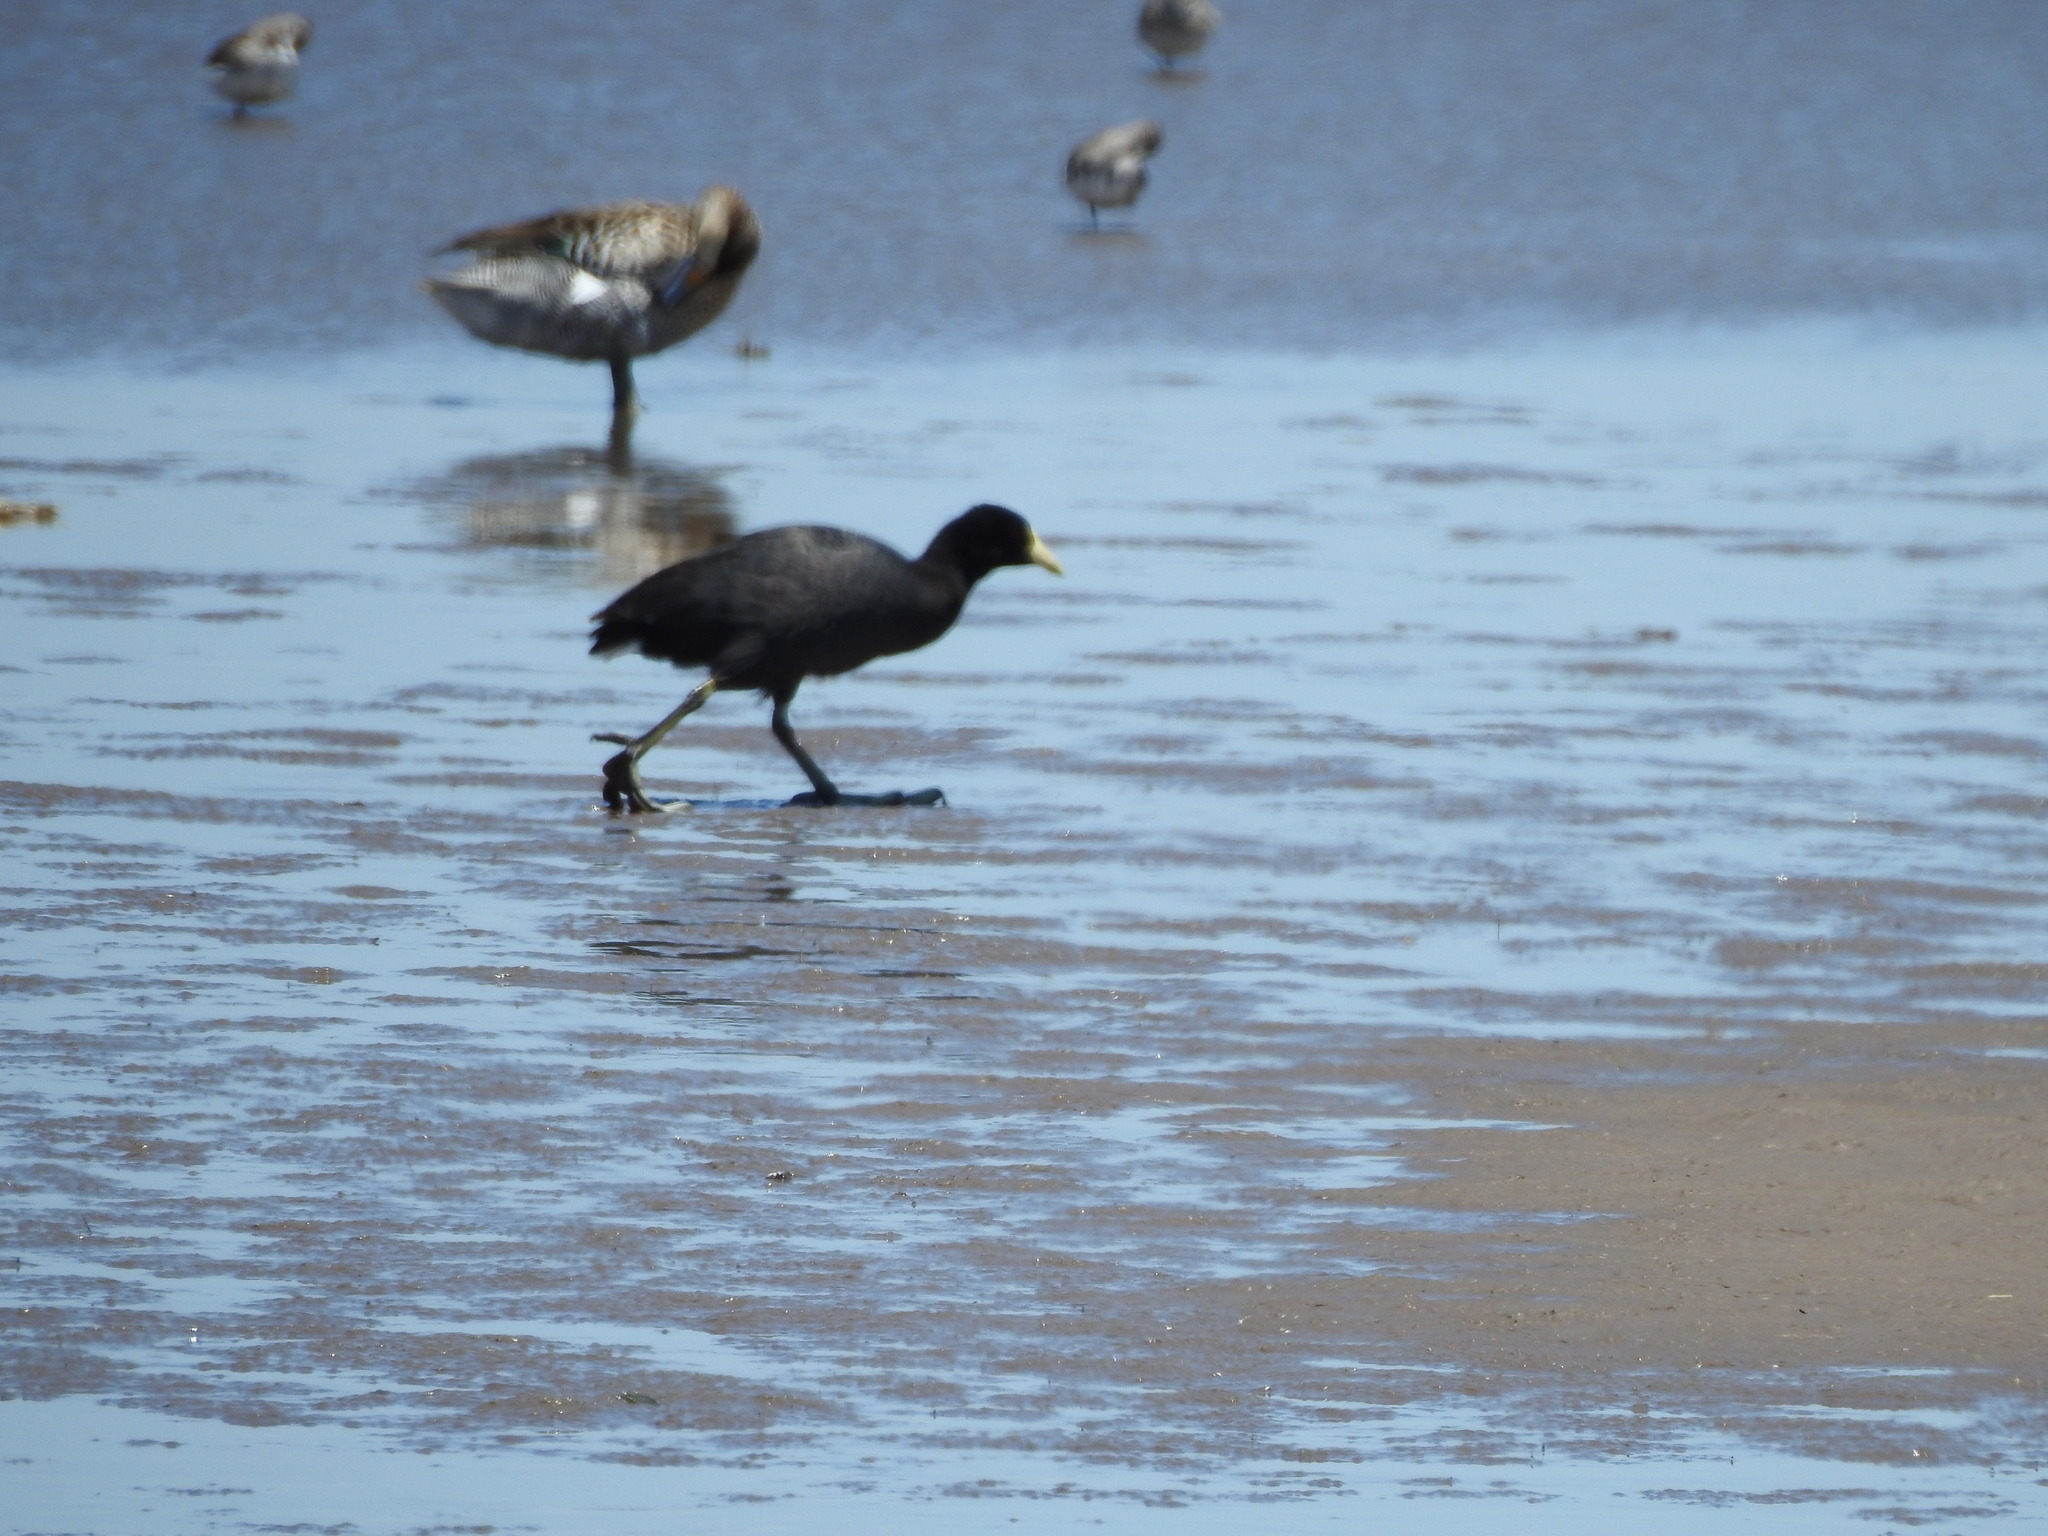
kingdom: Animalia
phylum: Chordata
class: Aves
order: Gruiformes
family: Rallidae
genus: Fulica
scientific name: Fulica leucoptera
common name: White-winged coot
